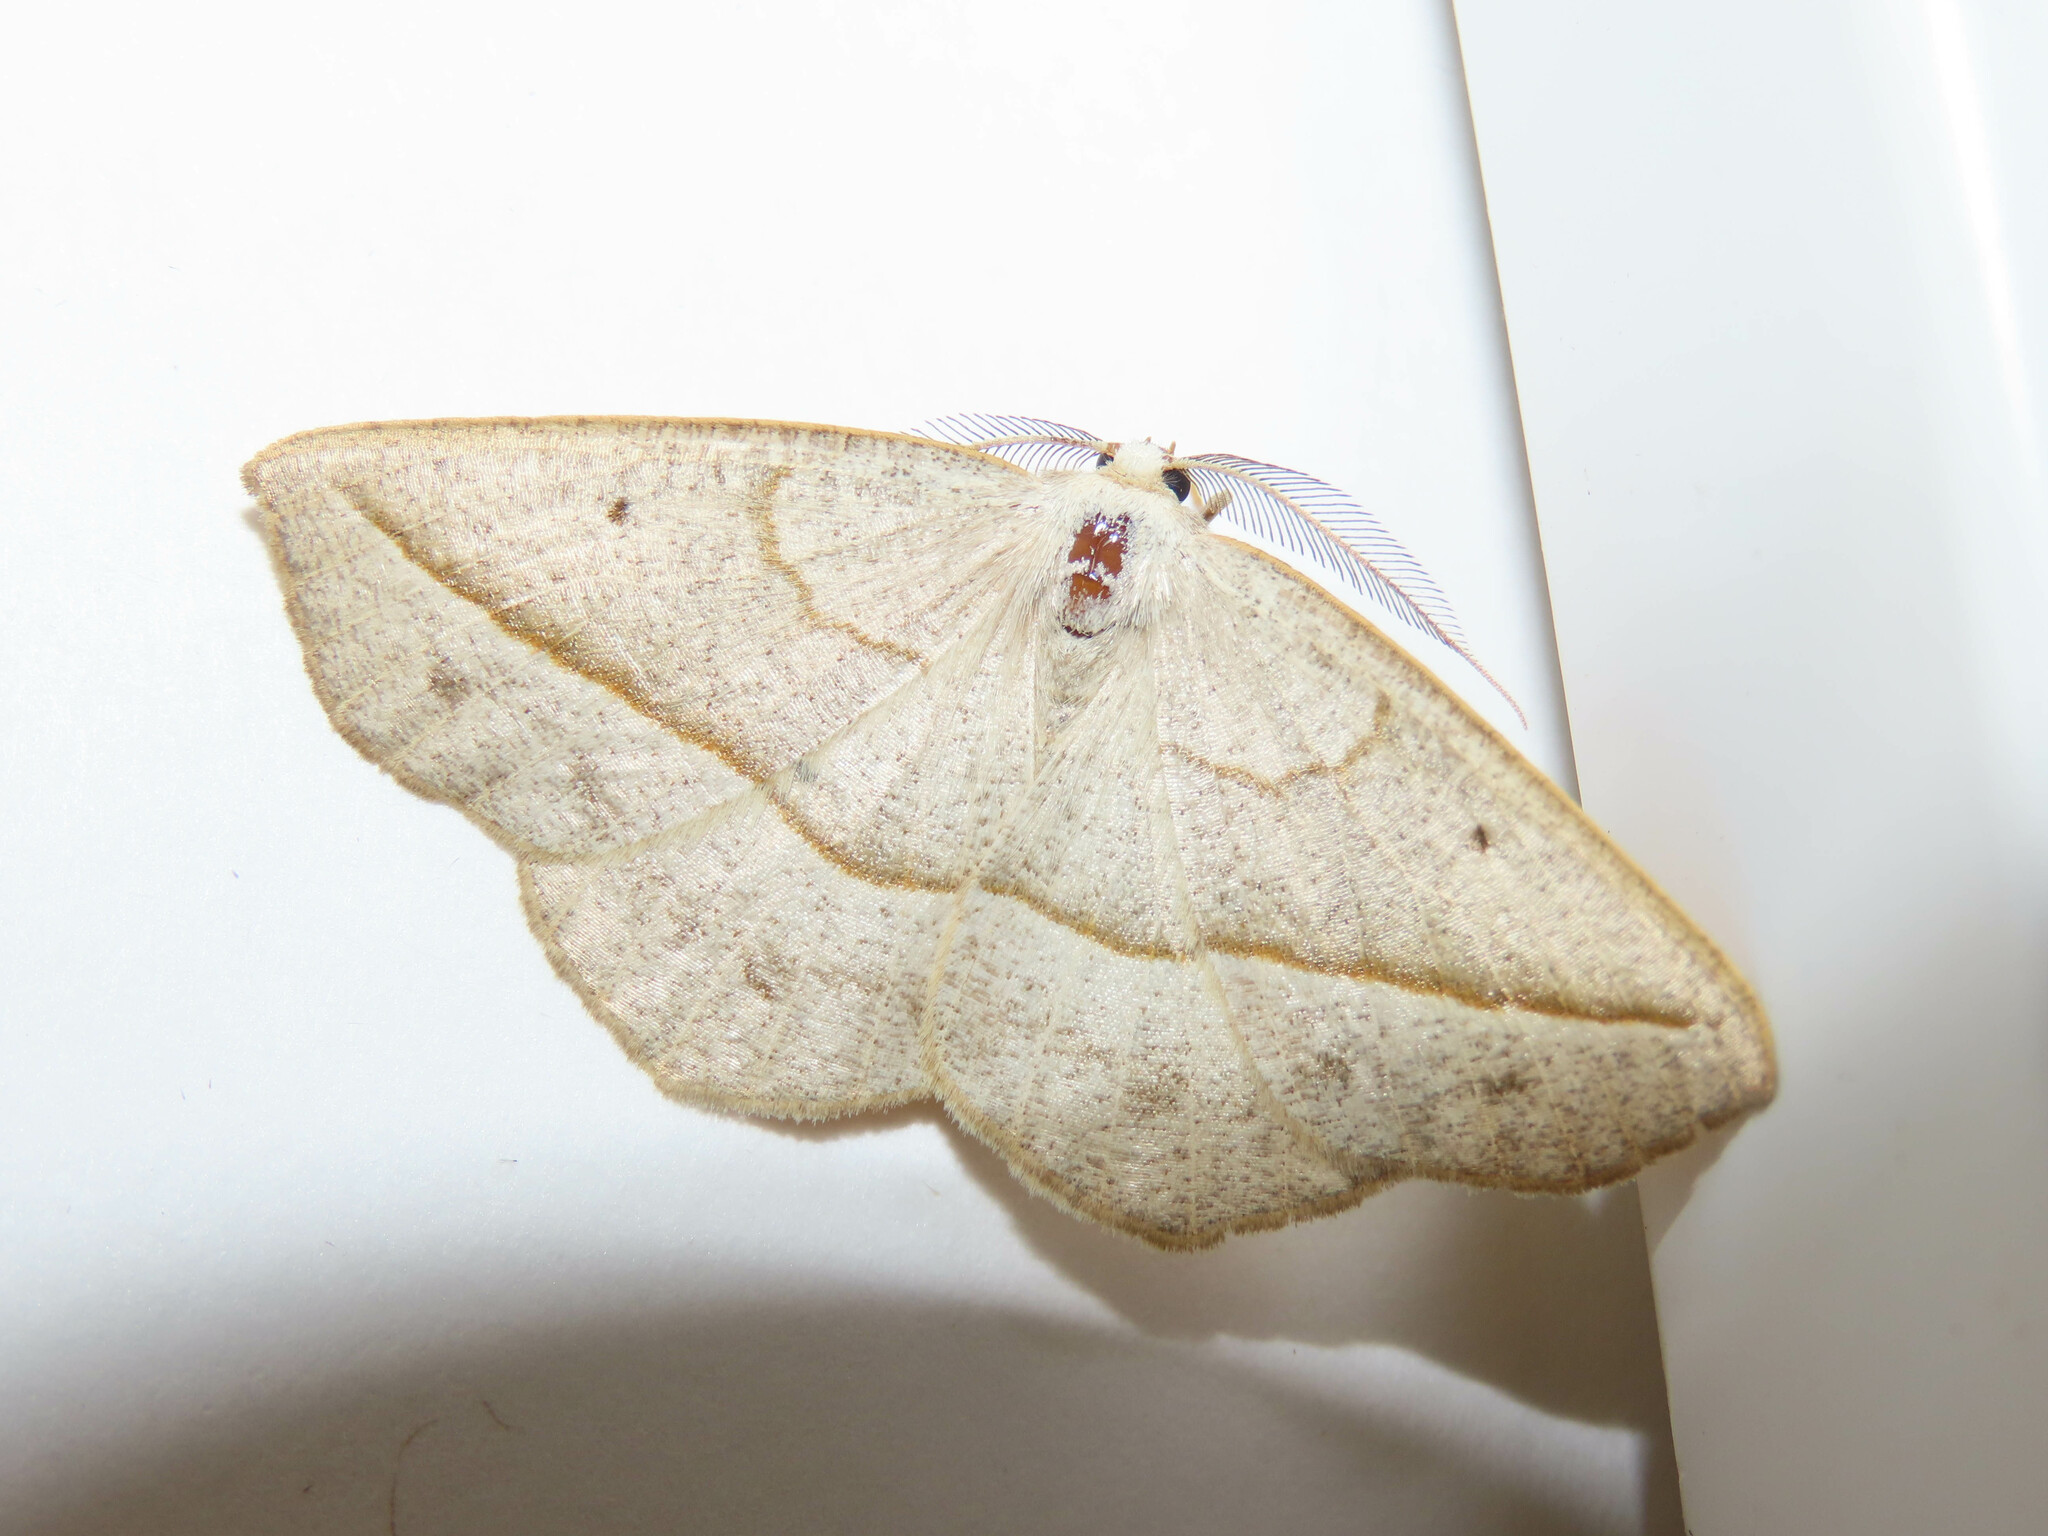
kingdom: Animalia
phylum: Arthropoda
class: Insecta
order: Lepidoptera
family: Geometridae
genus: Eusarca
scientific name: Eusarca confusaria
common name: Confused eusarca
